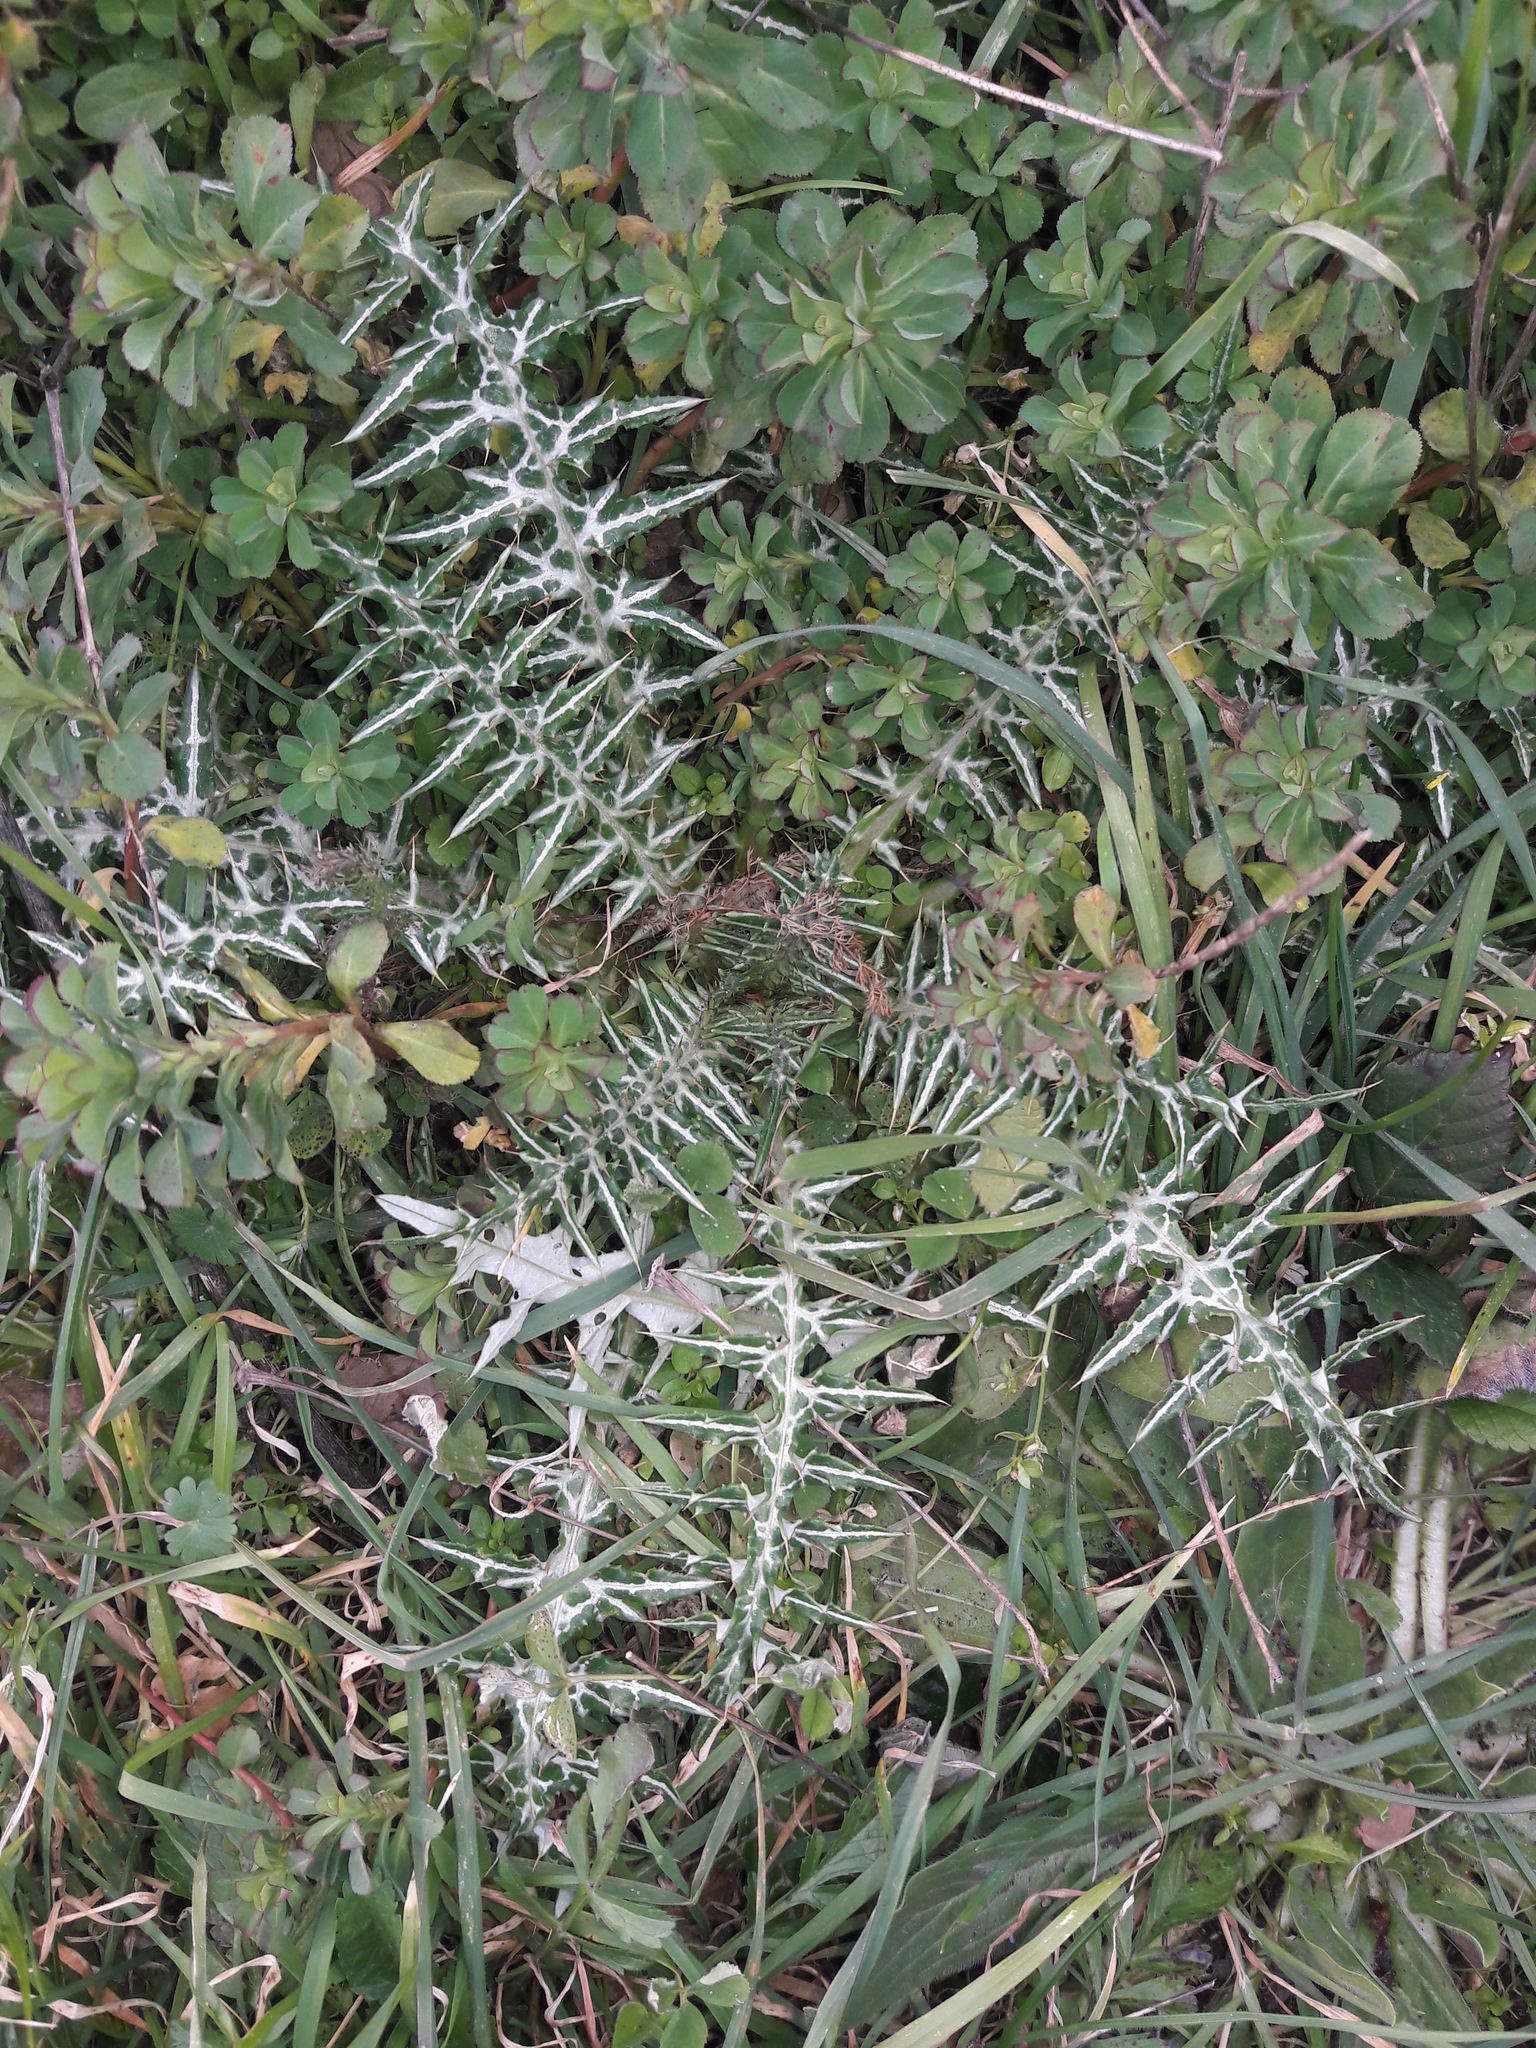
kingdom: Plantae
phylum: Tracheophyta
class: Magnoliopsida
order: Asterales
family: Asteraceae
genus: Galactites
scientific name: Galactites tomentosa
